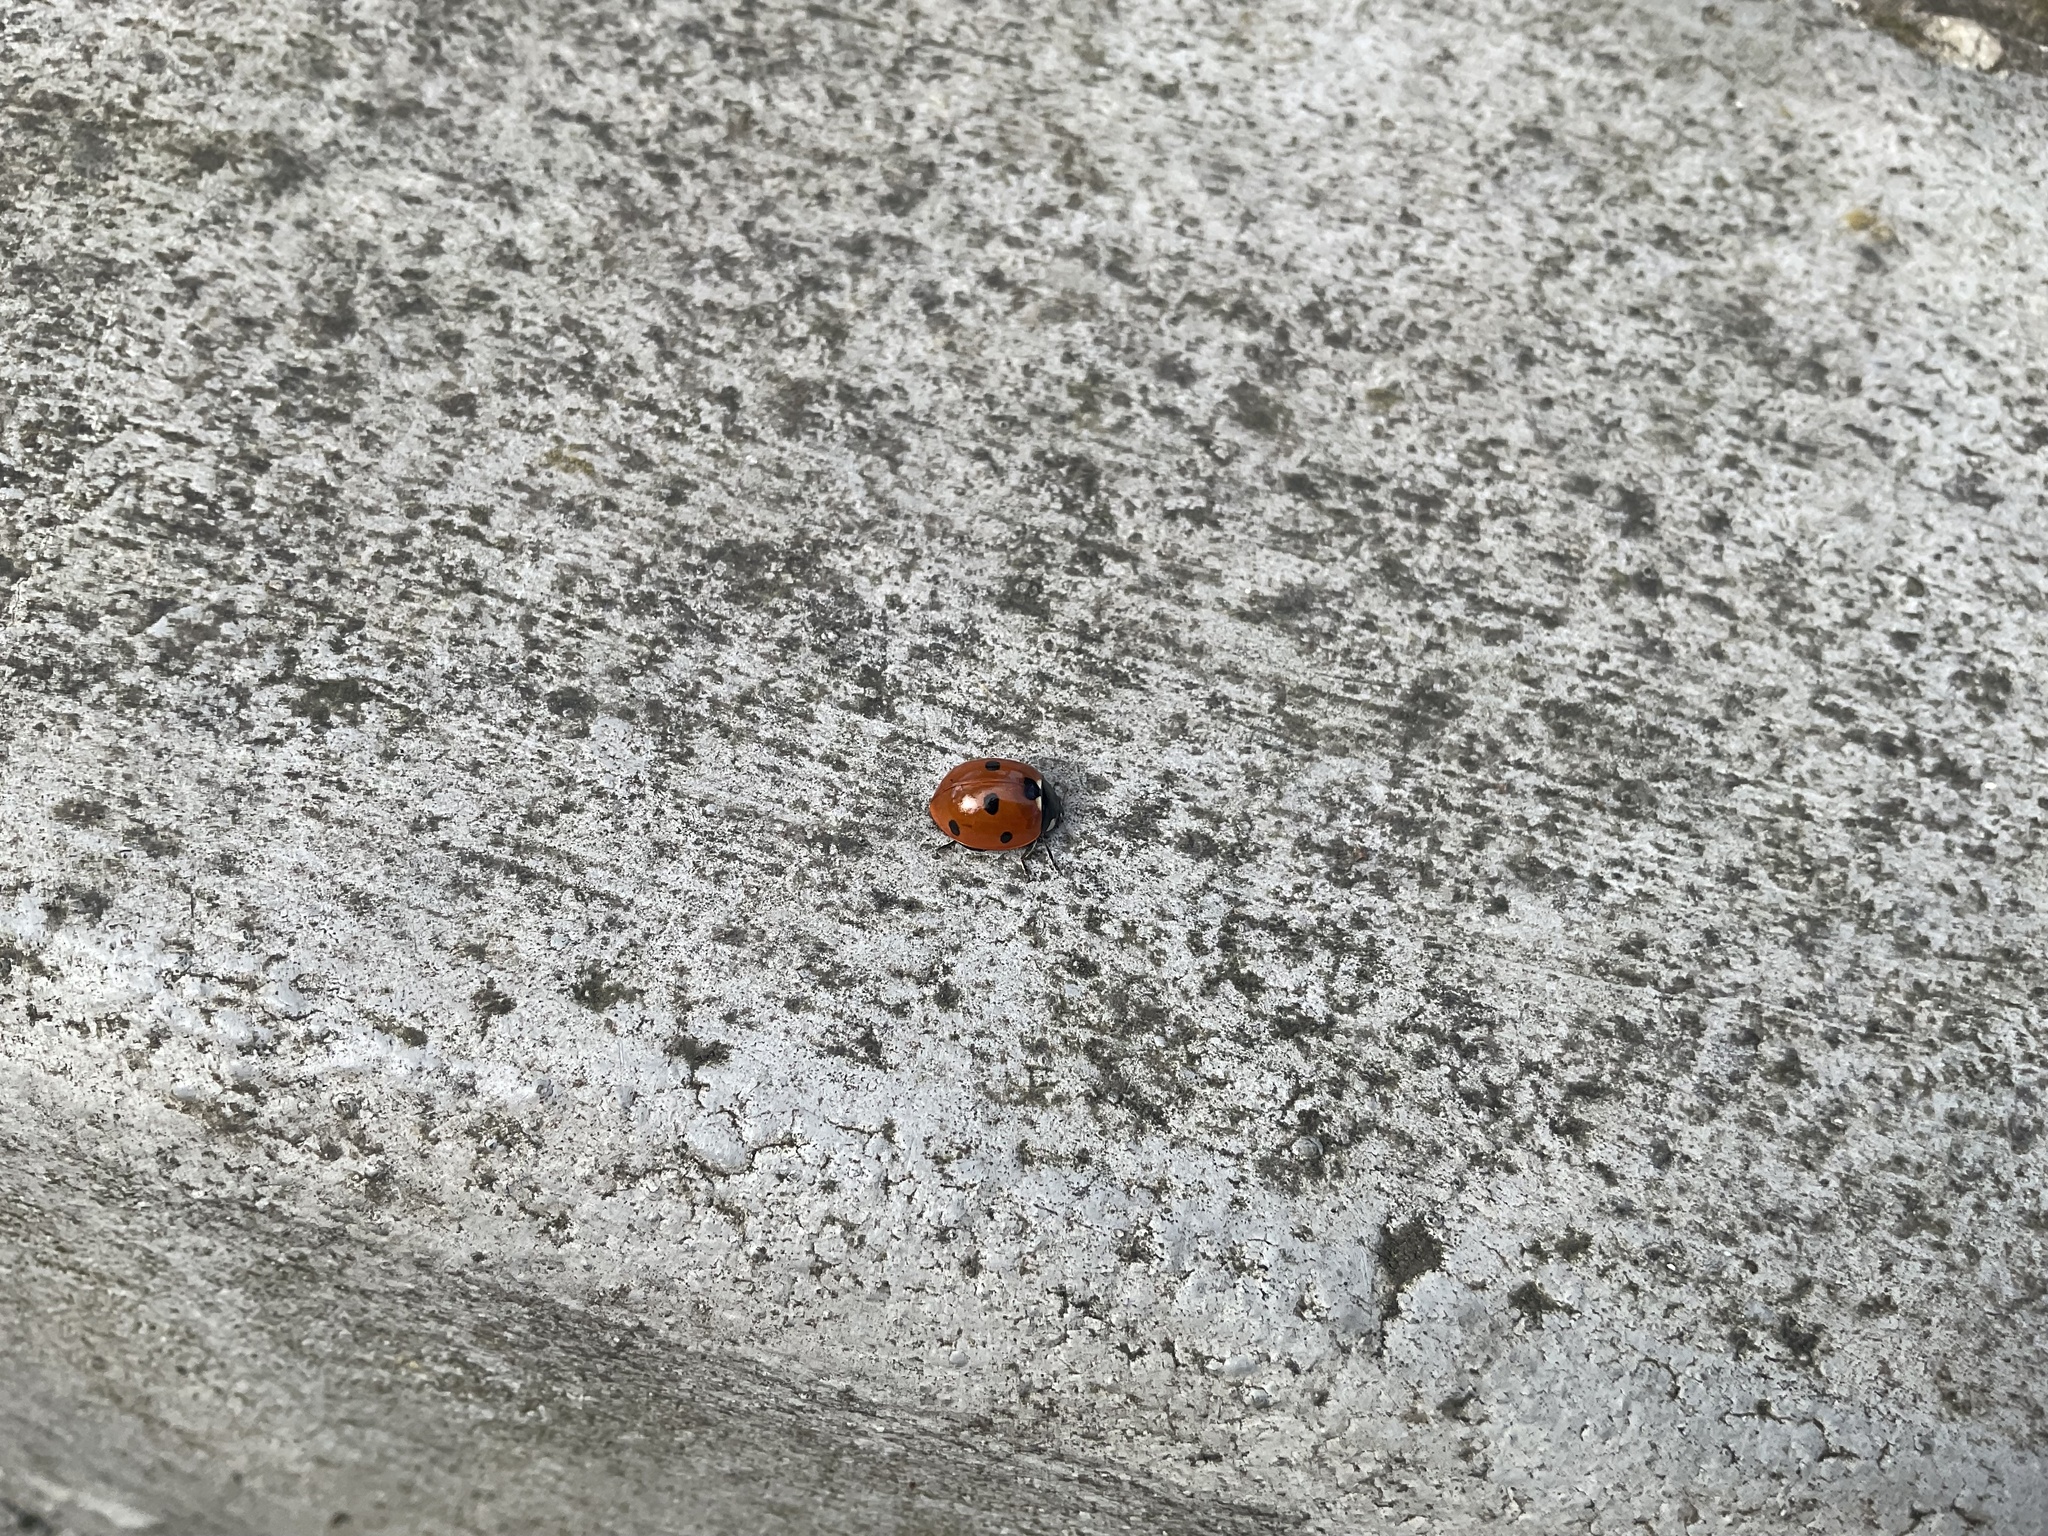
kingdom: Animalia
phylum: Arthropoda
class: Insecta
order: Coleoptera
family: Coccinellidae
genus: Coccinella
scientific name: Coccinella septempunctata
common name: Sevenspotted lady beetle
